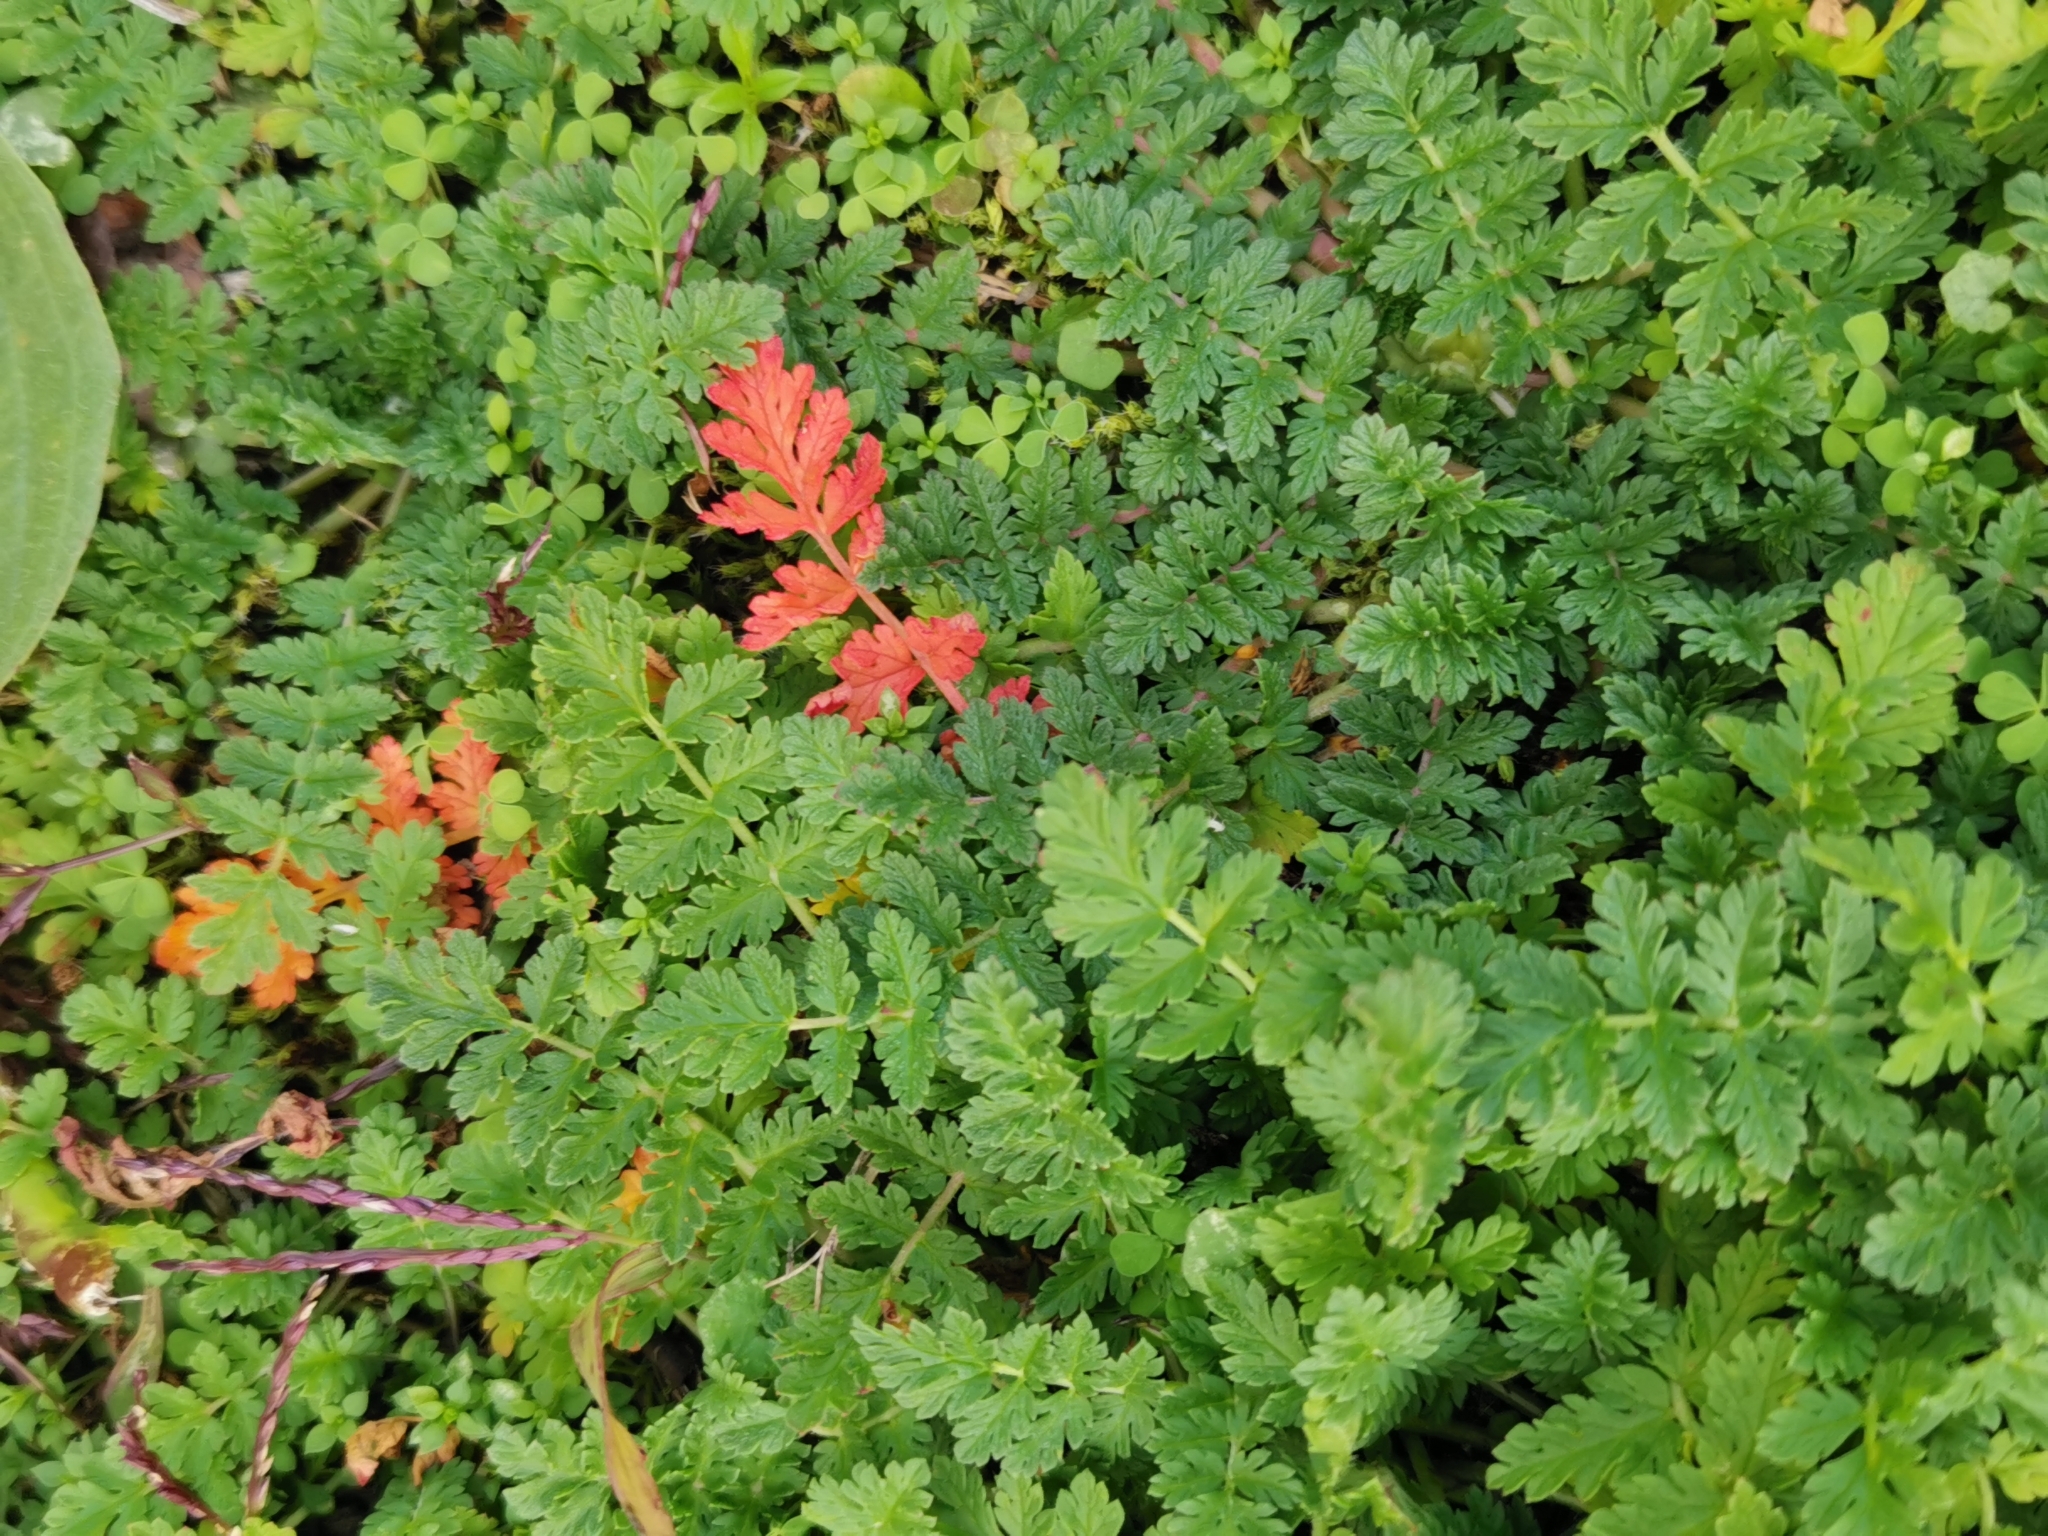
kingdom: Plantae
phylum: Tracheophyta
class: Magnoliopsida
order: Geraniales
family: Geraniaceae
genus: Erodium
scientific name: Erodium cicutarium
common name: Common stork's-bill
